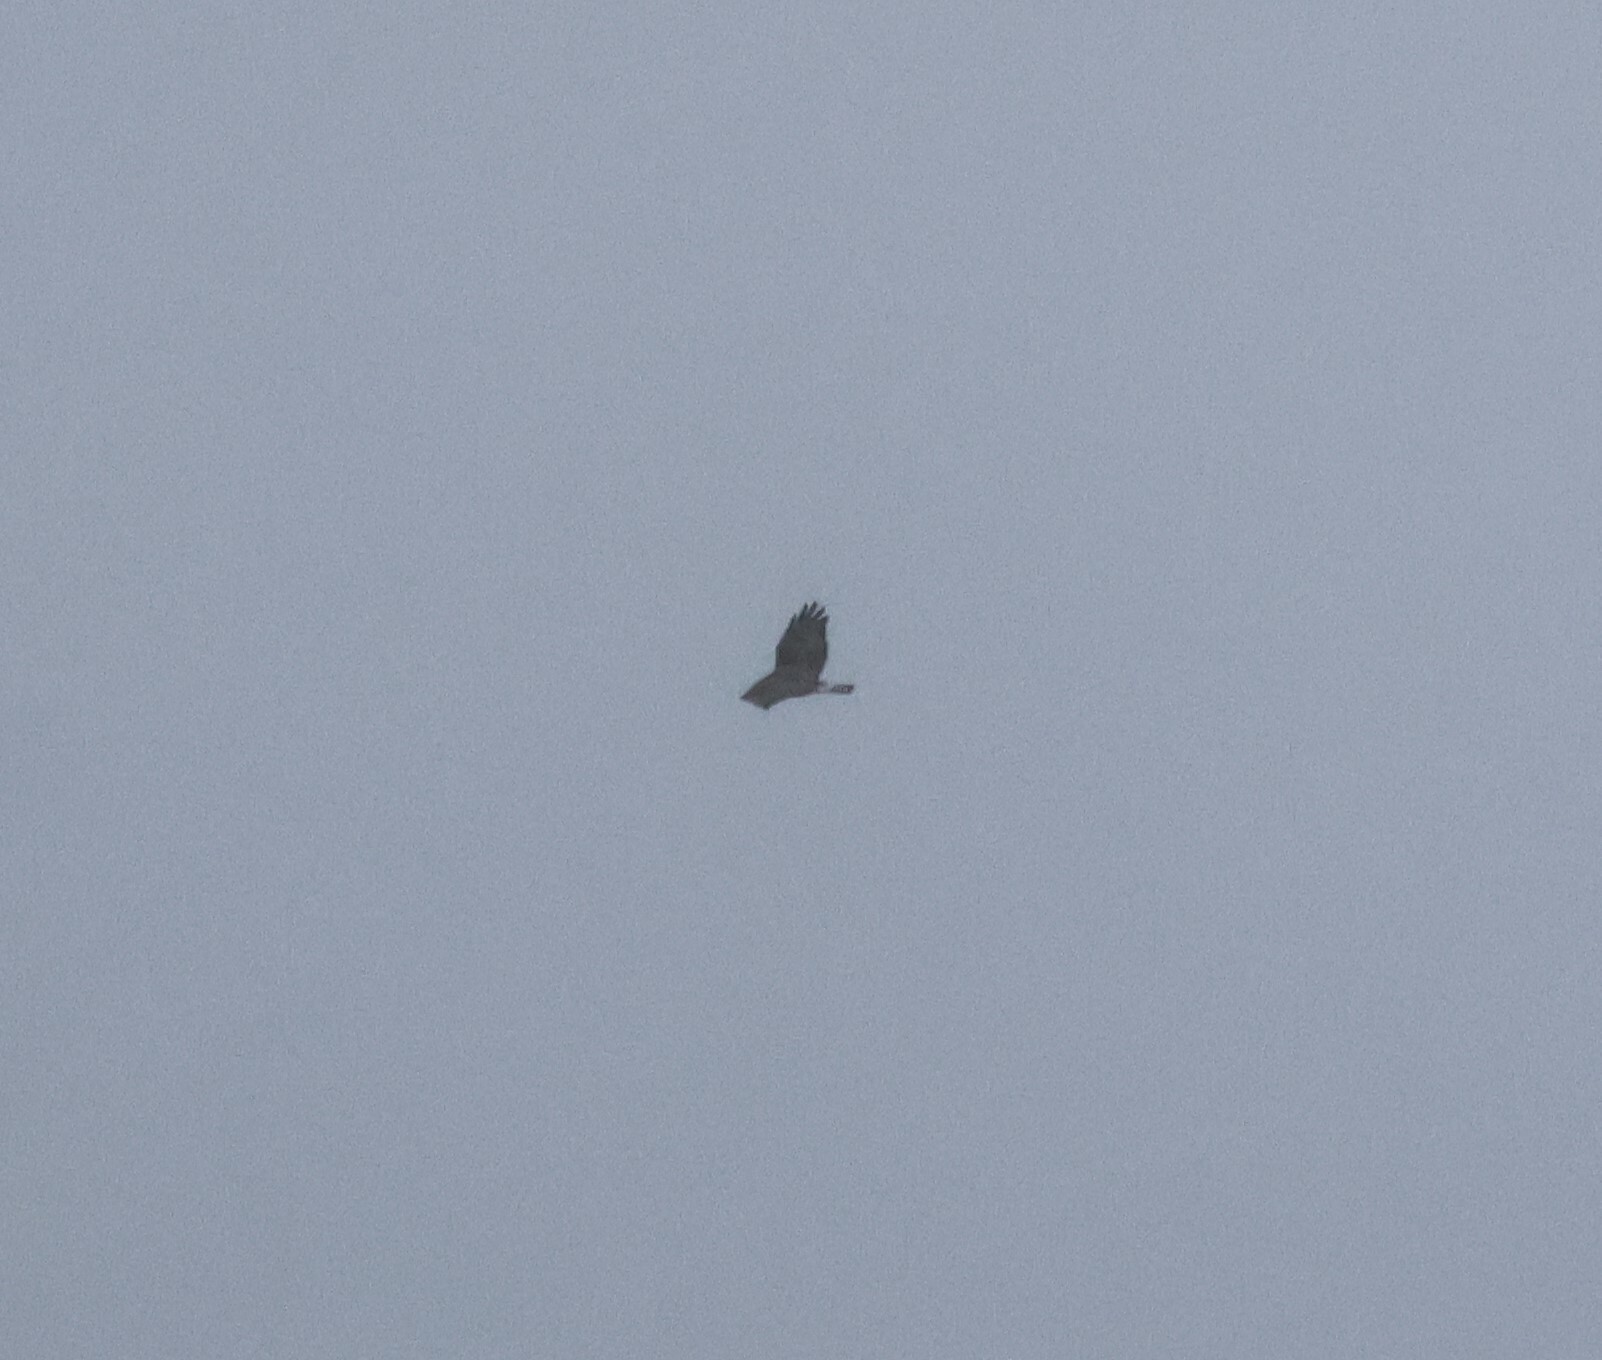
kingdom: Animalia
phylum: Chordata
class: Aves
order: Accipitriformes
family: Accipitridae
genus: Buteo
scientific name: Buteo lagopus
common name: Rough-legged buzzard
